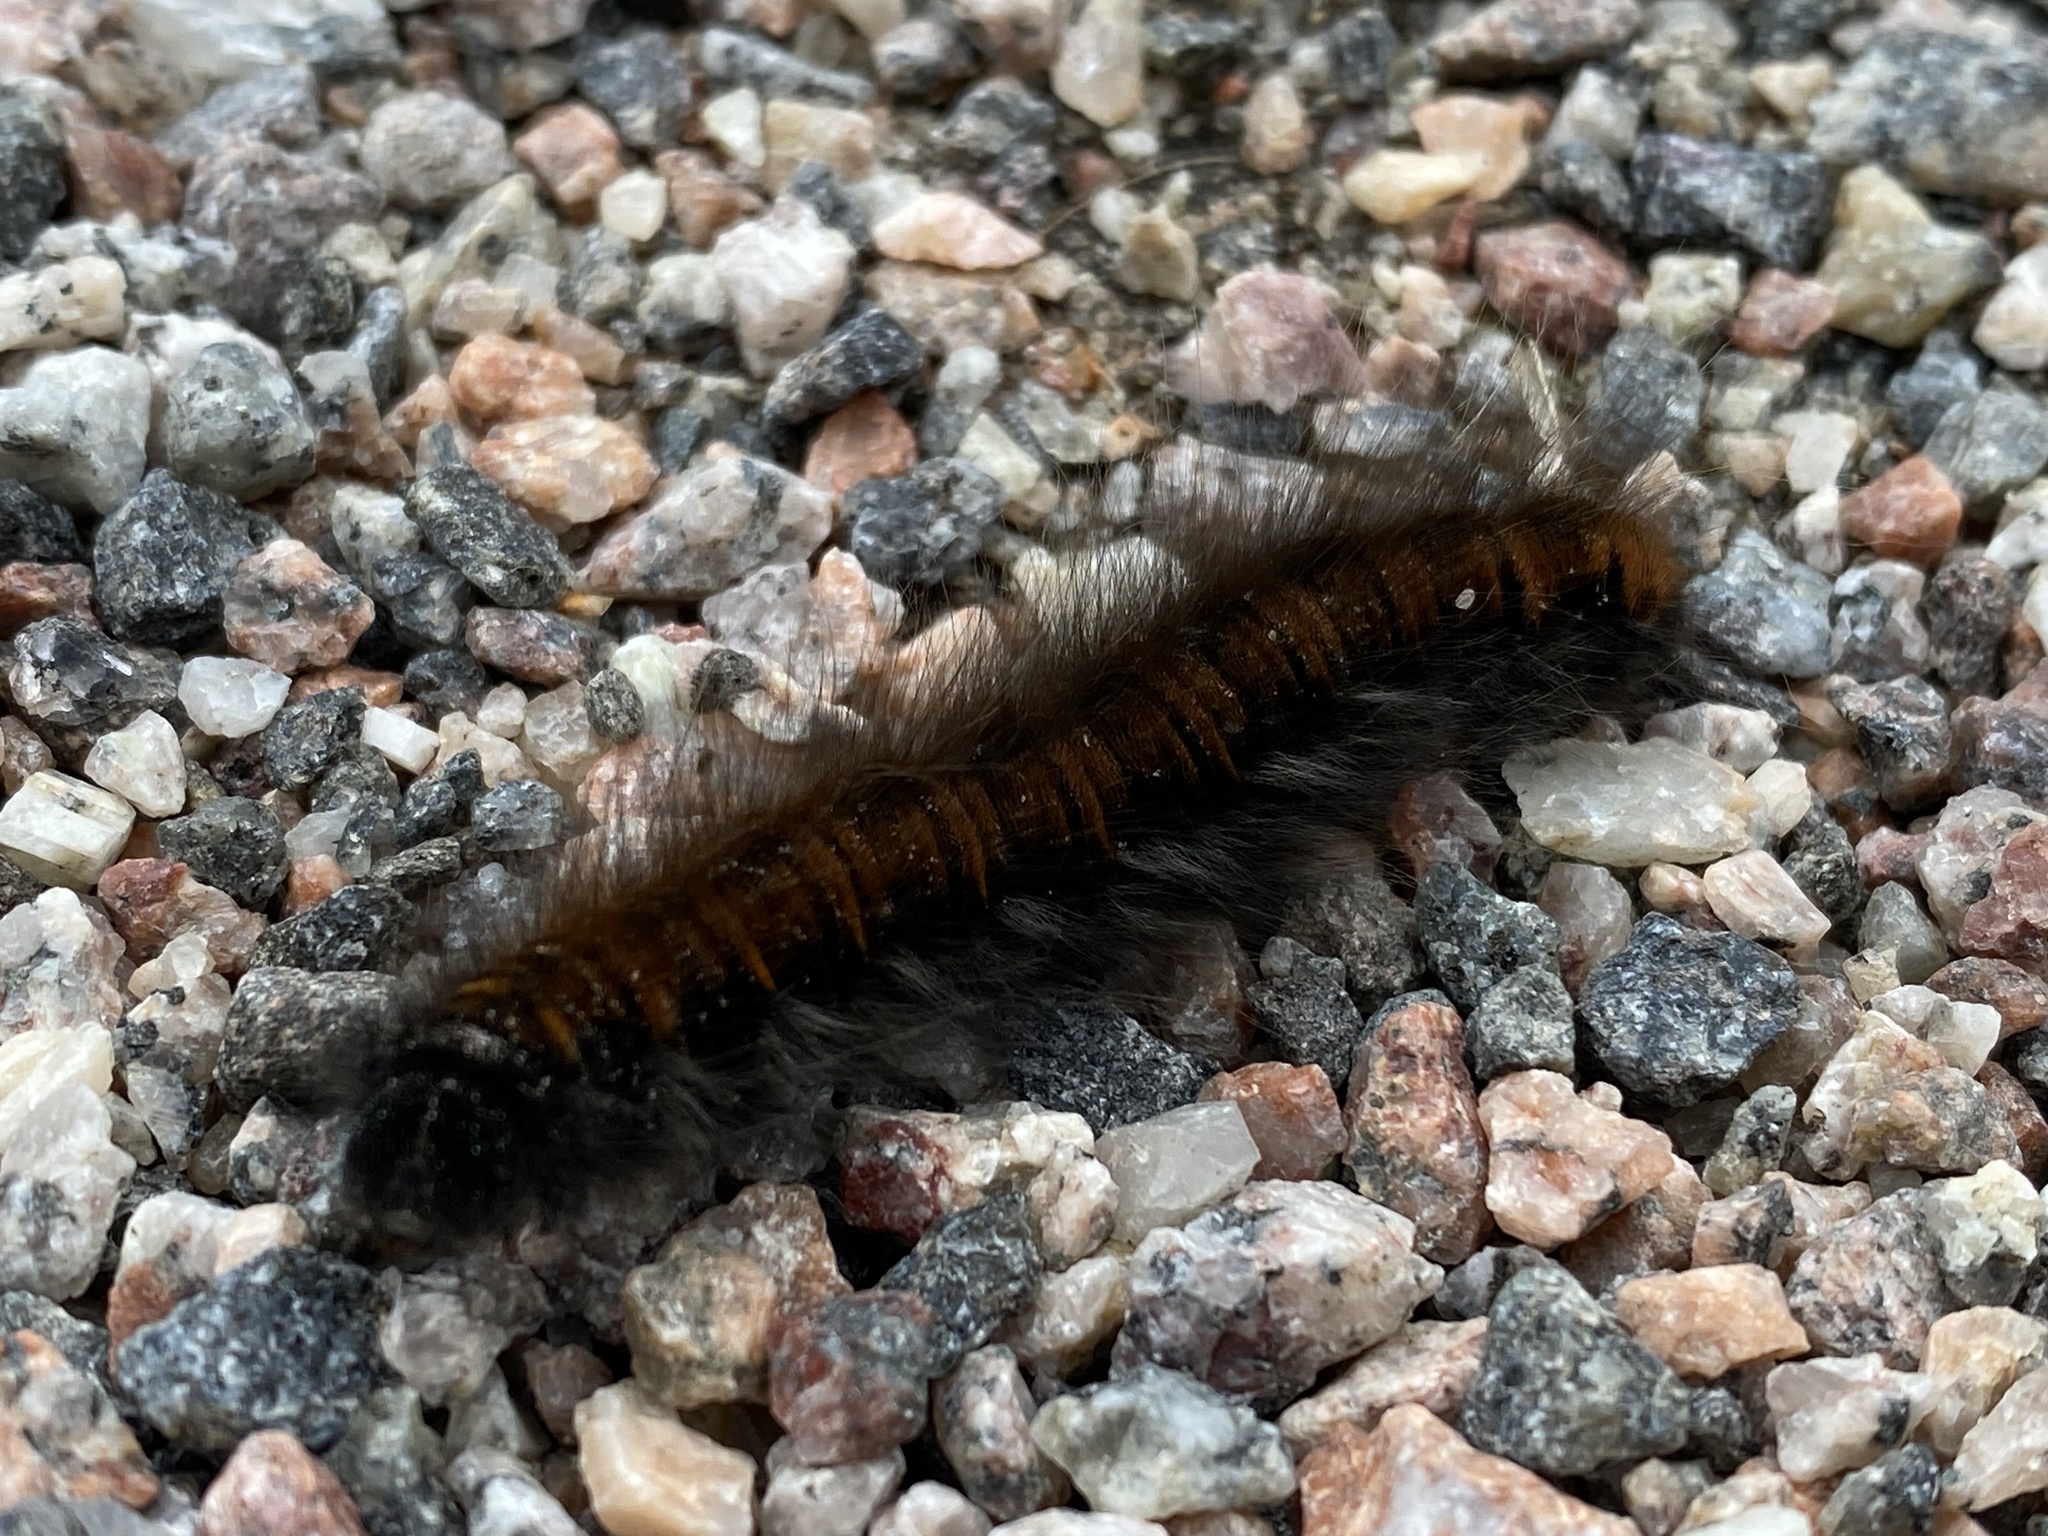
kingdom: Animalia
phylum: Arthropoda
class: Insecta
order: Lepidoptera
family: Lasiocampidae
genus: Macrothylacia
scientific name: Macrothylacia rubi
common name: Fox moth
